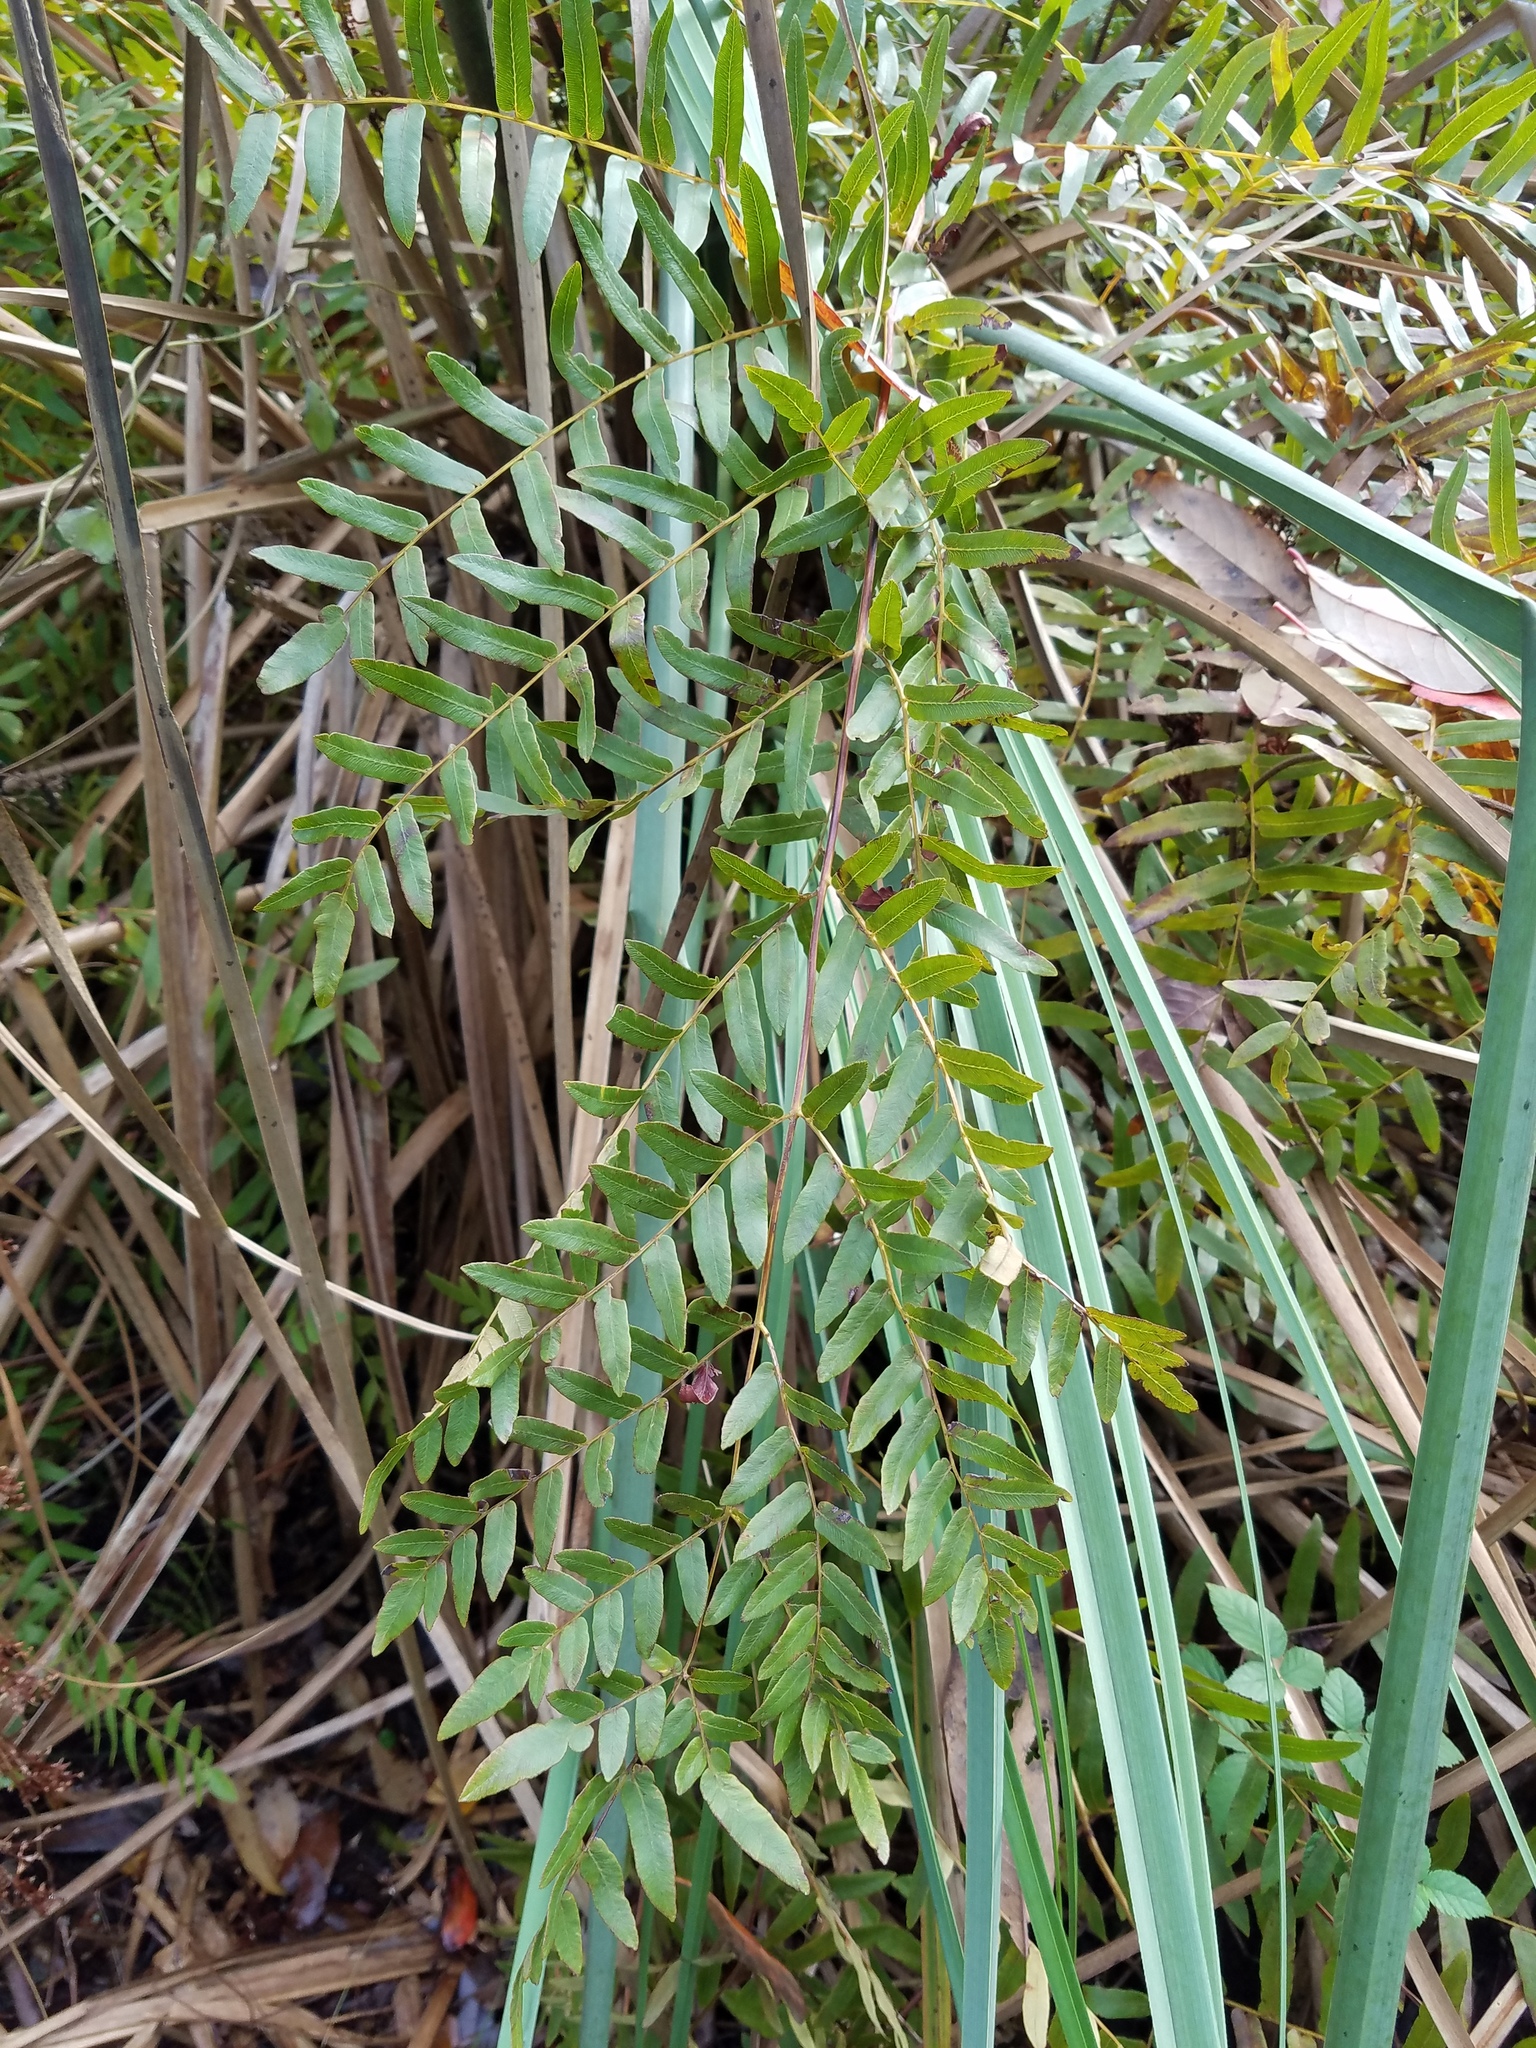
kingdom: Plantae
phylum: Tracheophyta
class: Polypodiopsida
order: Osmundales
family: Osmundaceae
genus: Osmunda
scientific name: Osmunda spectabilis
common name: American royal fern
